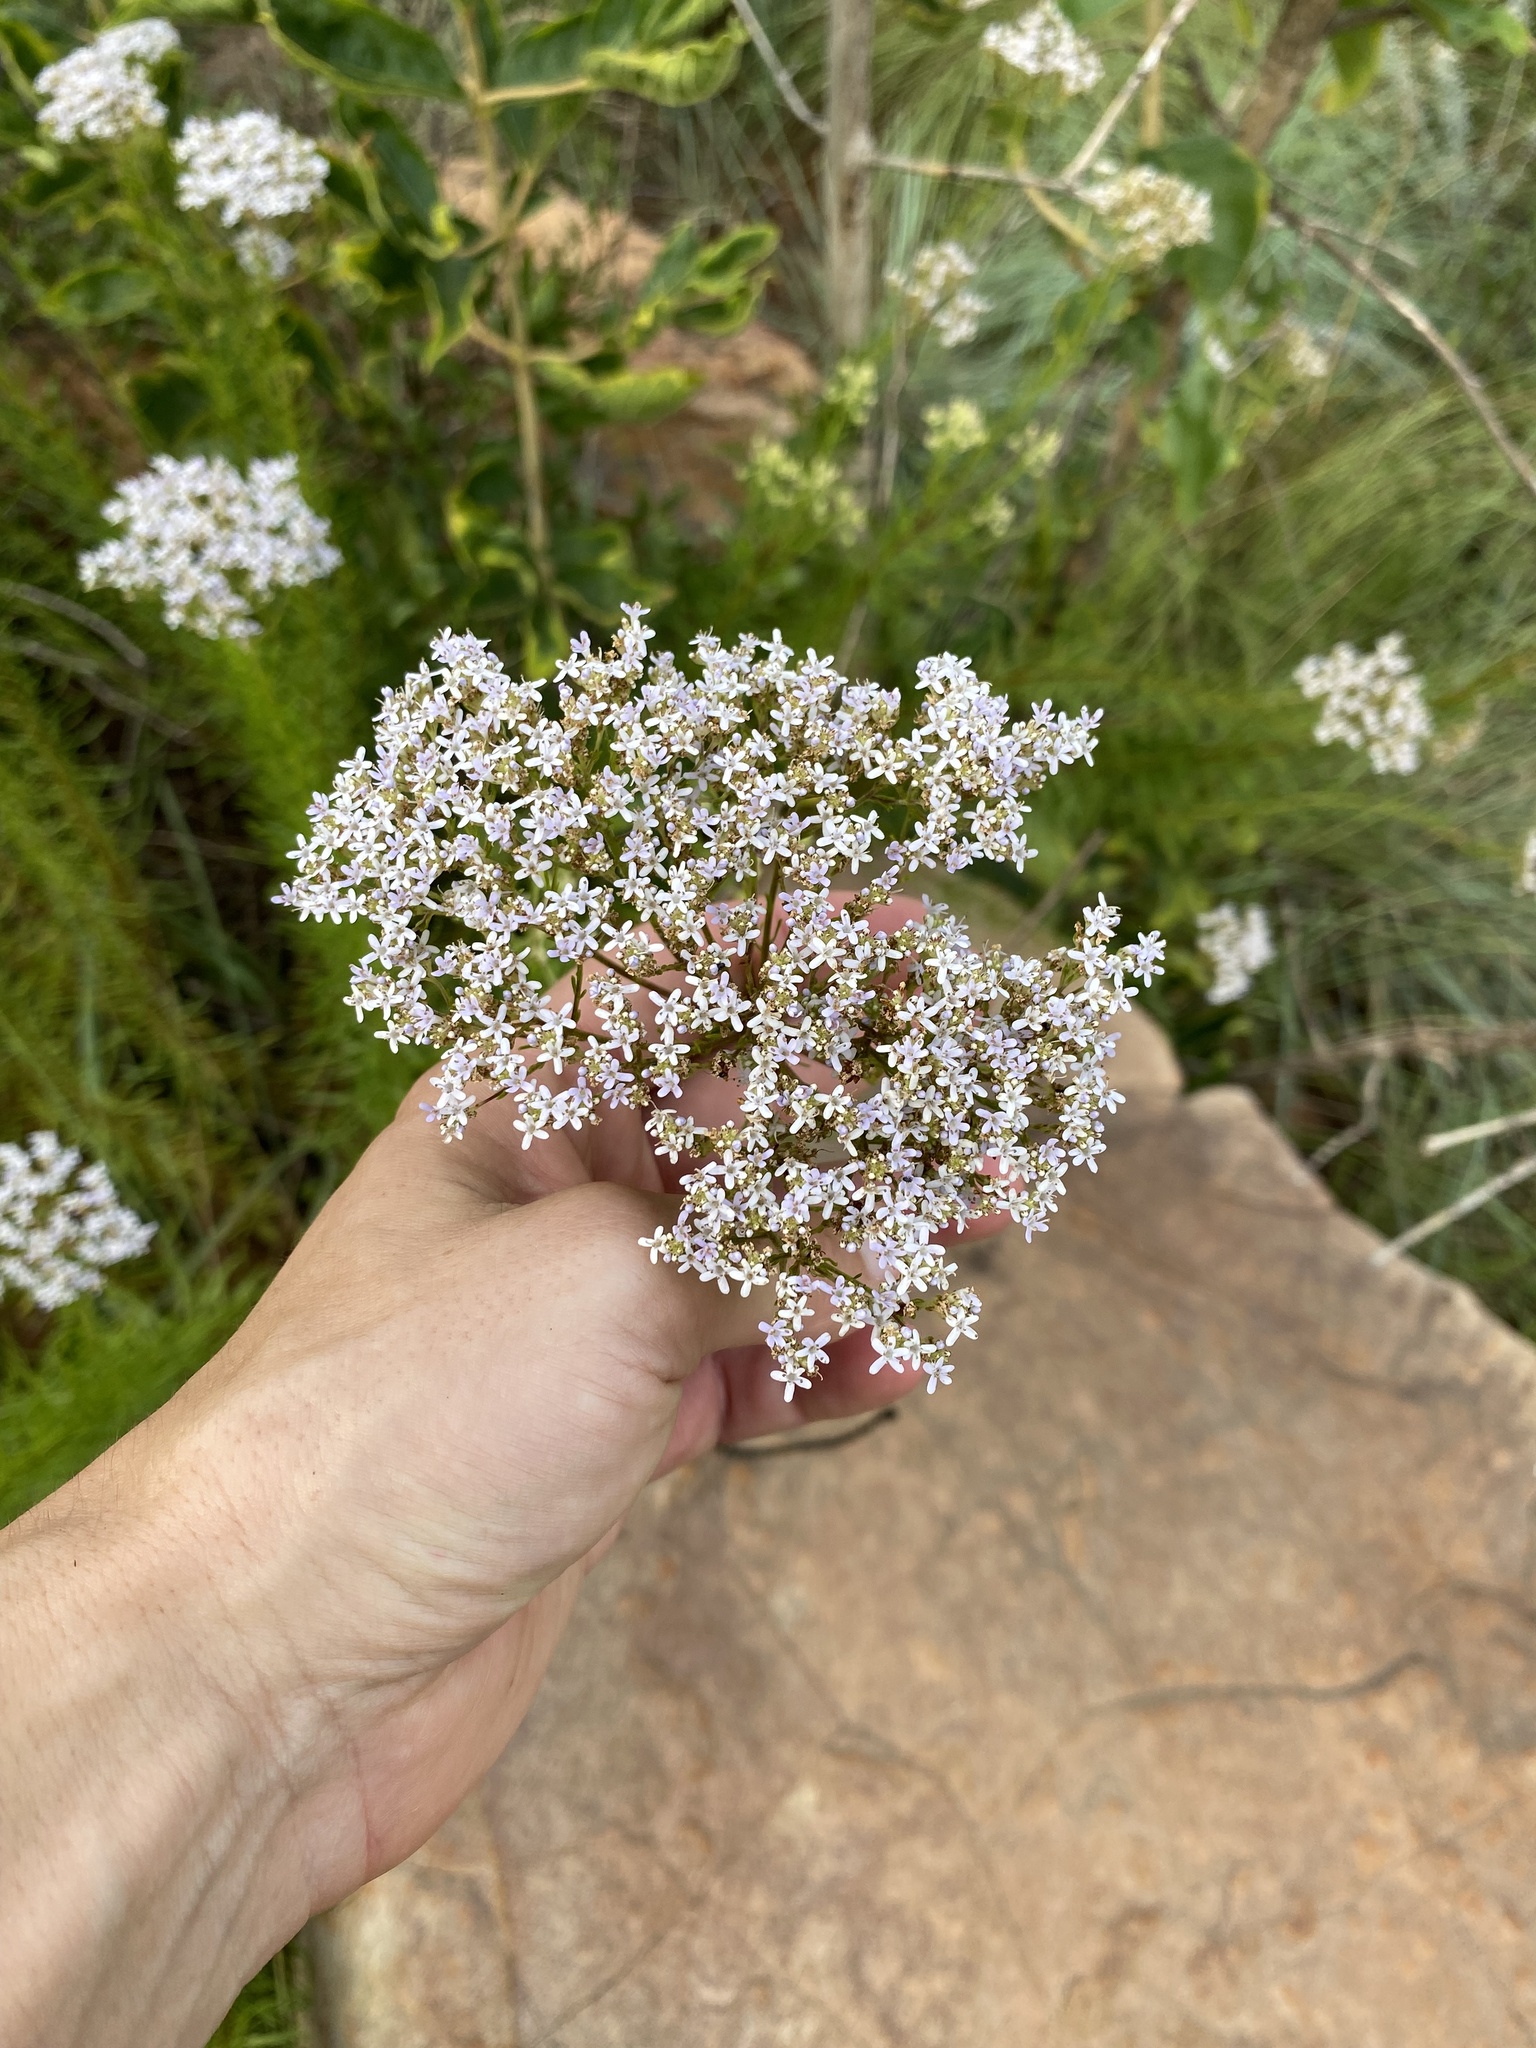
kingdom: Plantae
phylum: Tracheophyta
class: Magnoliopsida
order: Lamiales
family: Scrophulariaceae
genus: Tetraselago
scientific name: Tetraselago natalensis
